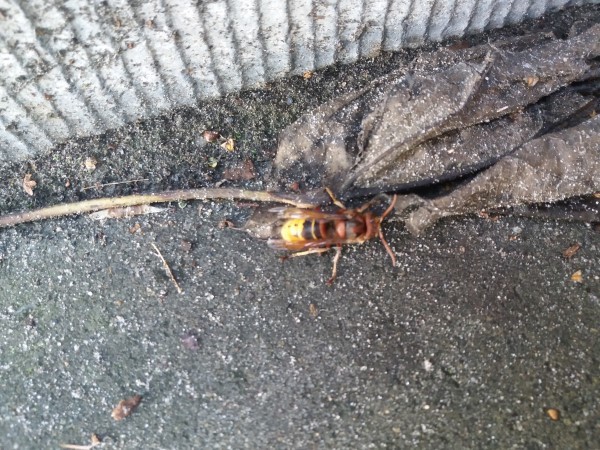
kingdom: Animalia
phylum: Arthropoda
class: Insecta
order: Hymenoptera
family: Vespidae
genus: Vespa
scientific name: Vespa crabro
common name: Hornet
